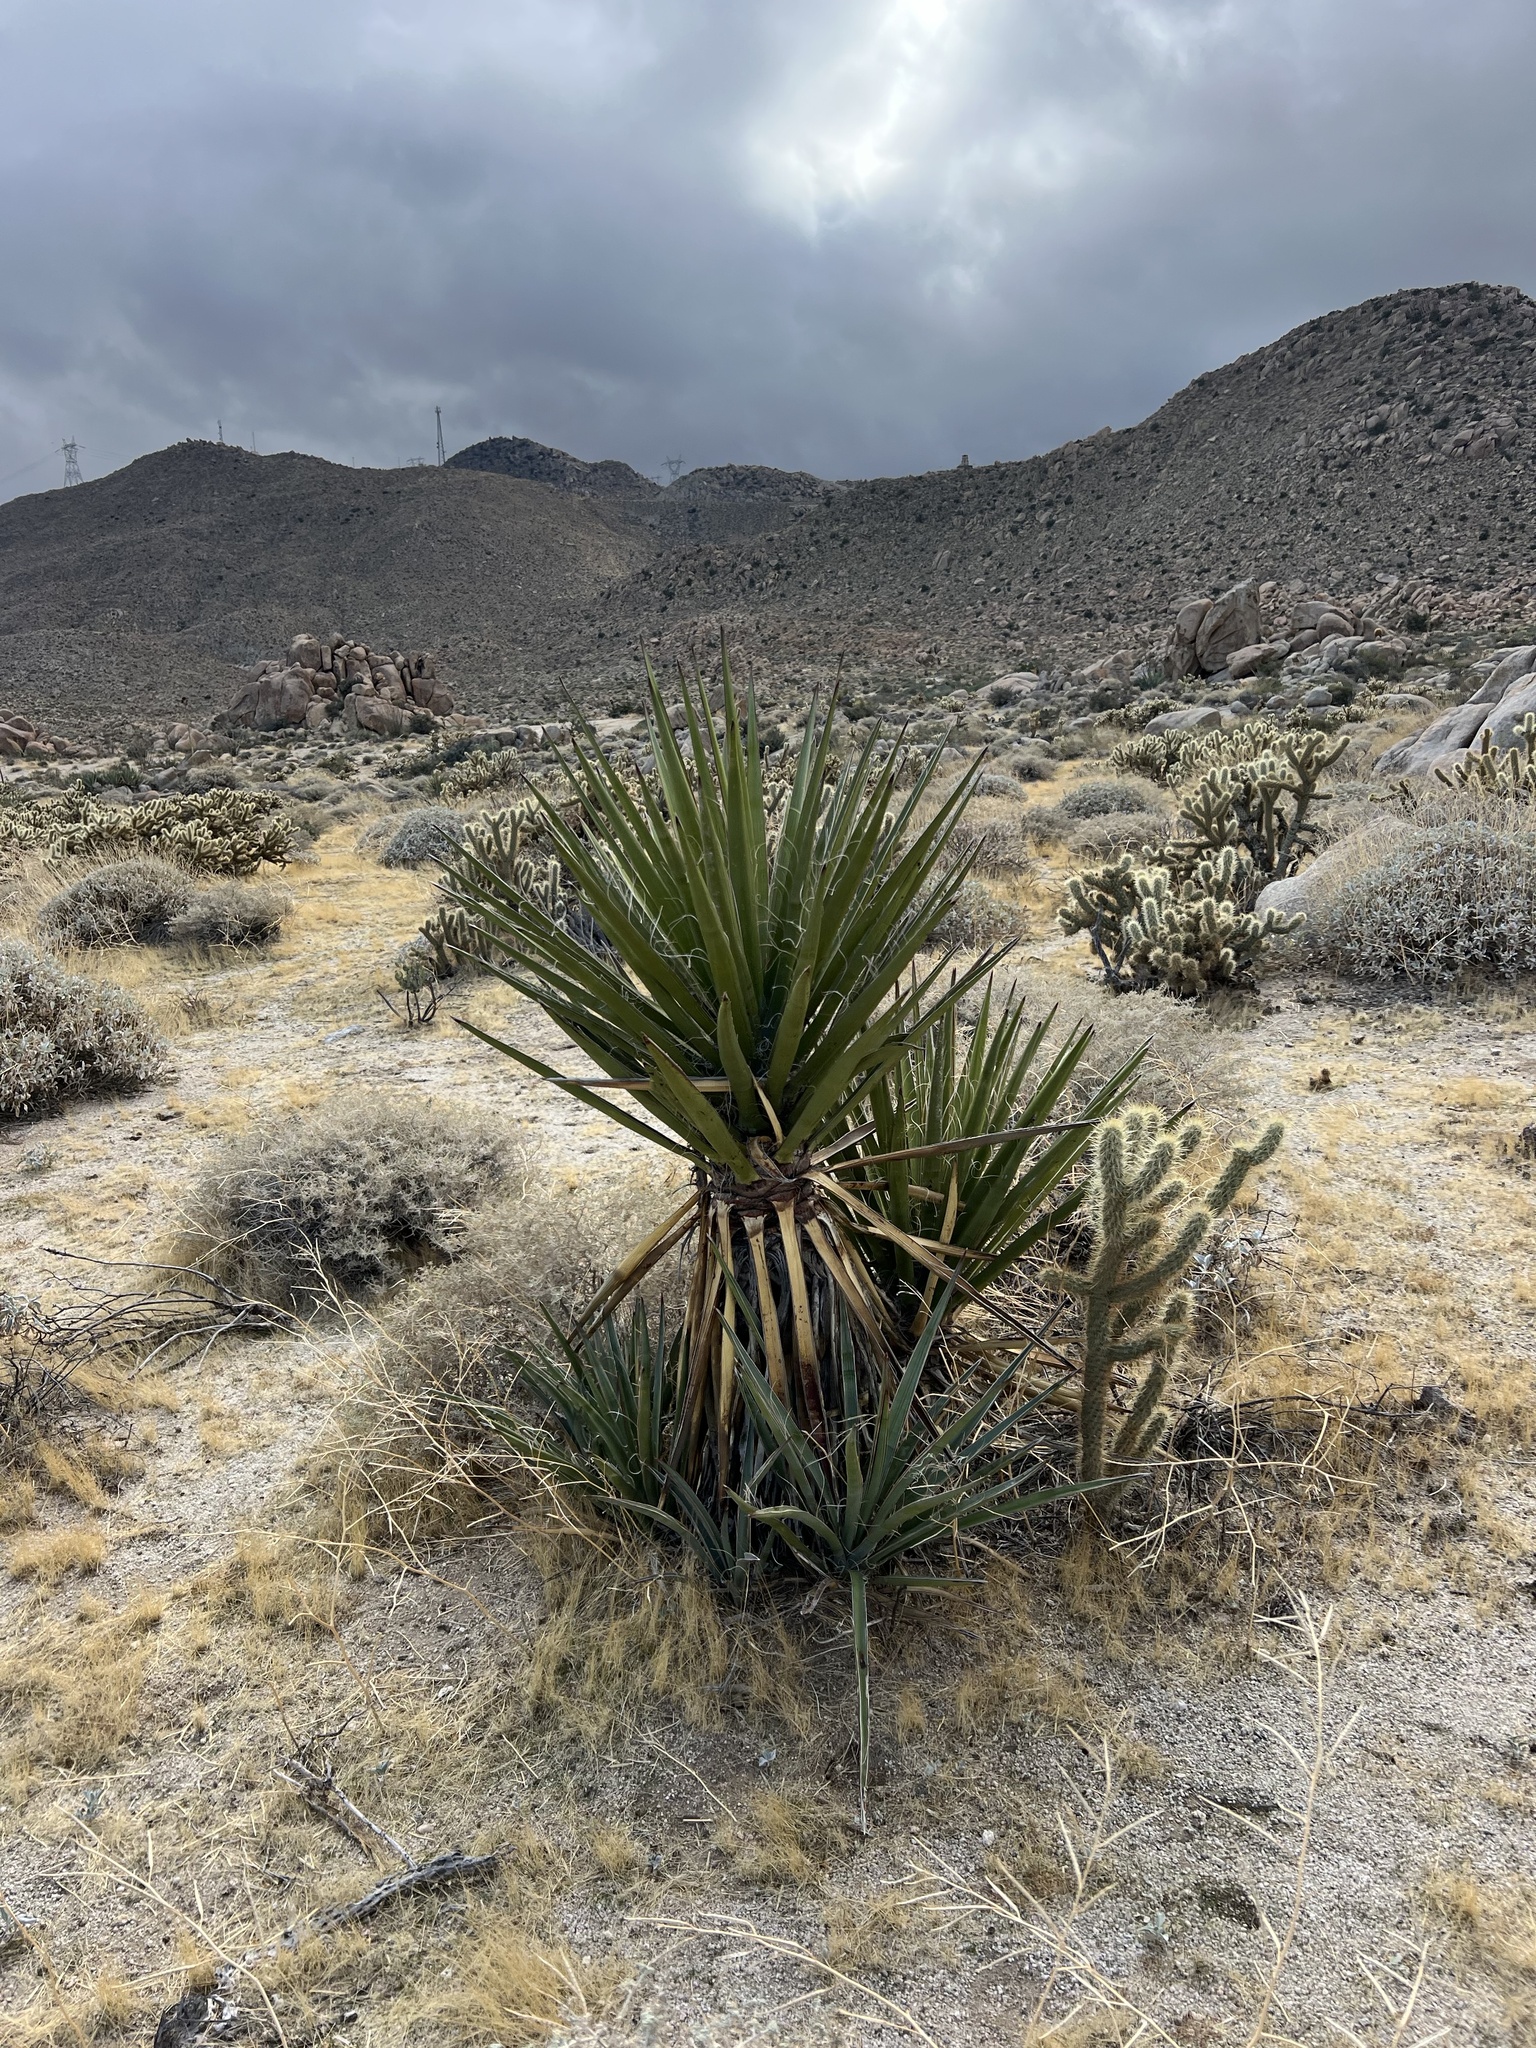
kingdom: Plantae
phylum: Tracheophyta
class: Liliopsida
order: Asparagales
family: Asparagaceae
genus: Yucca
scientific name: Yucca schidigera
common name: Mojave yucca
